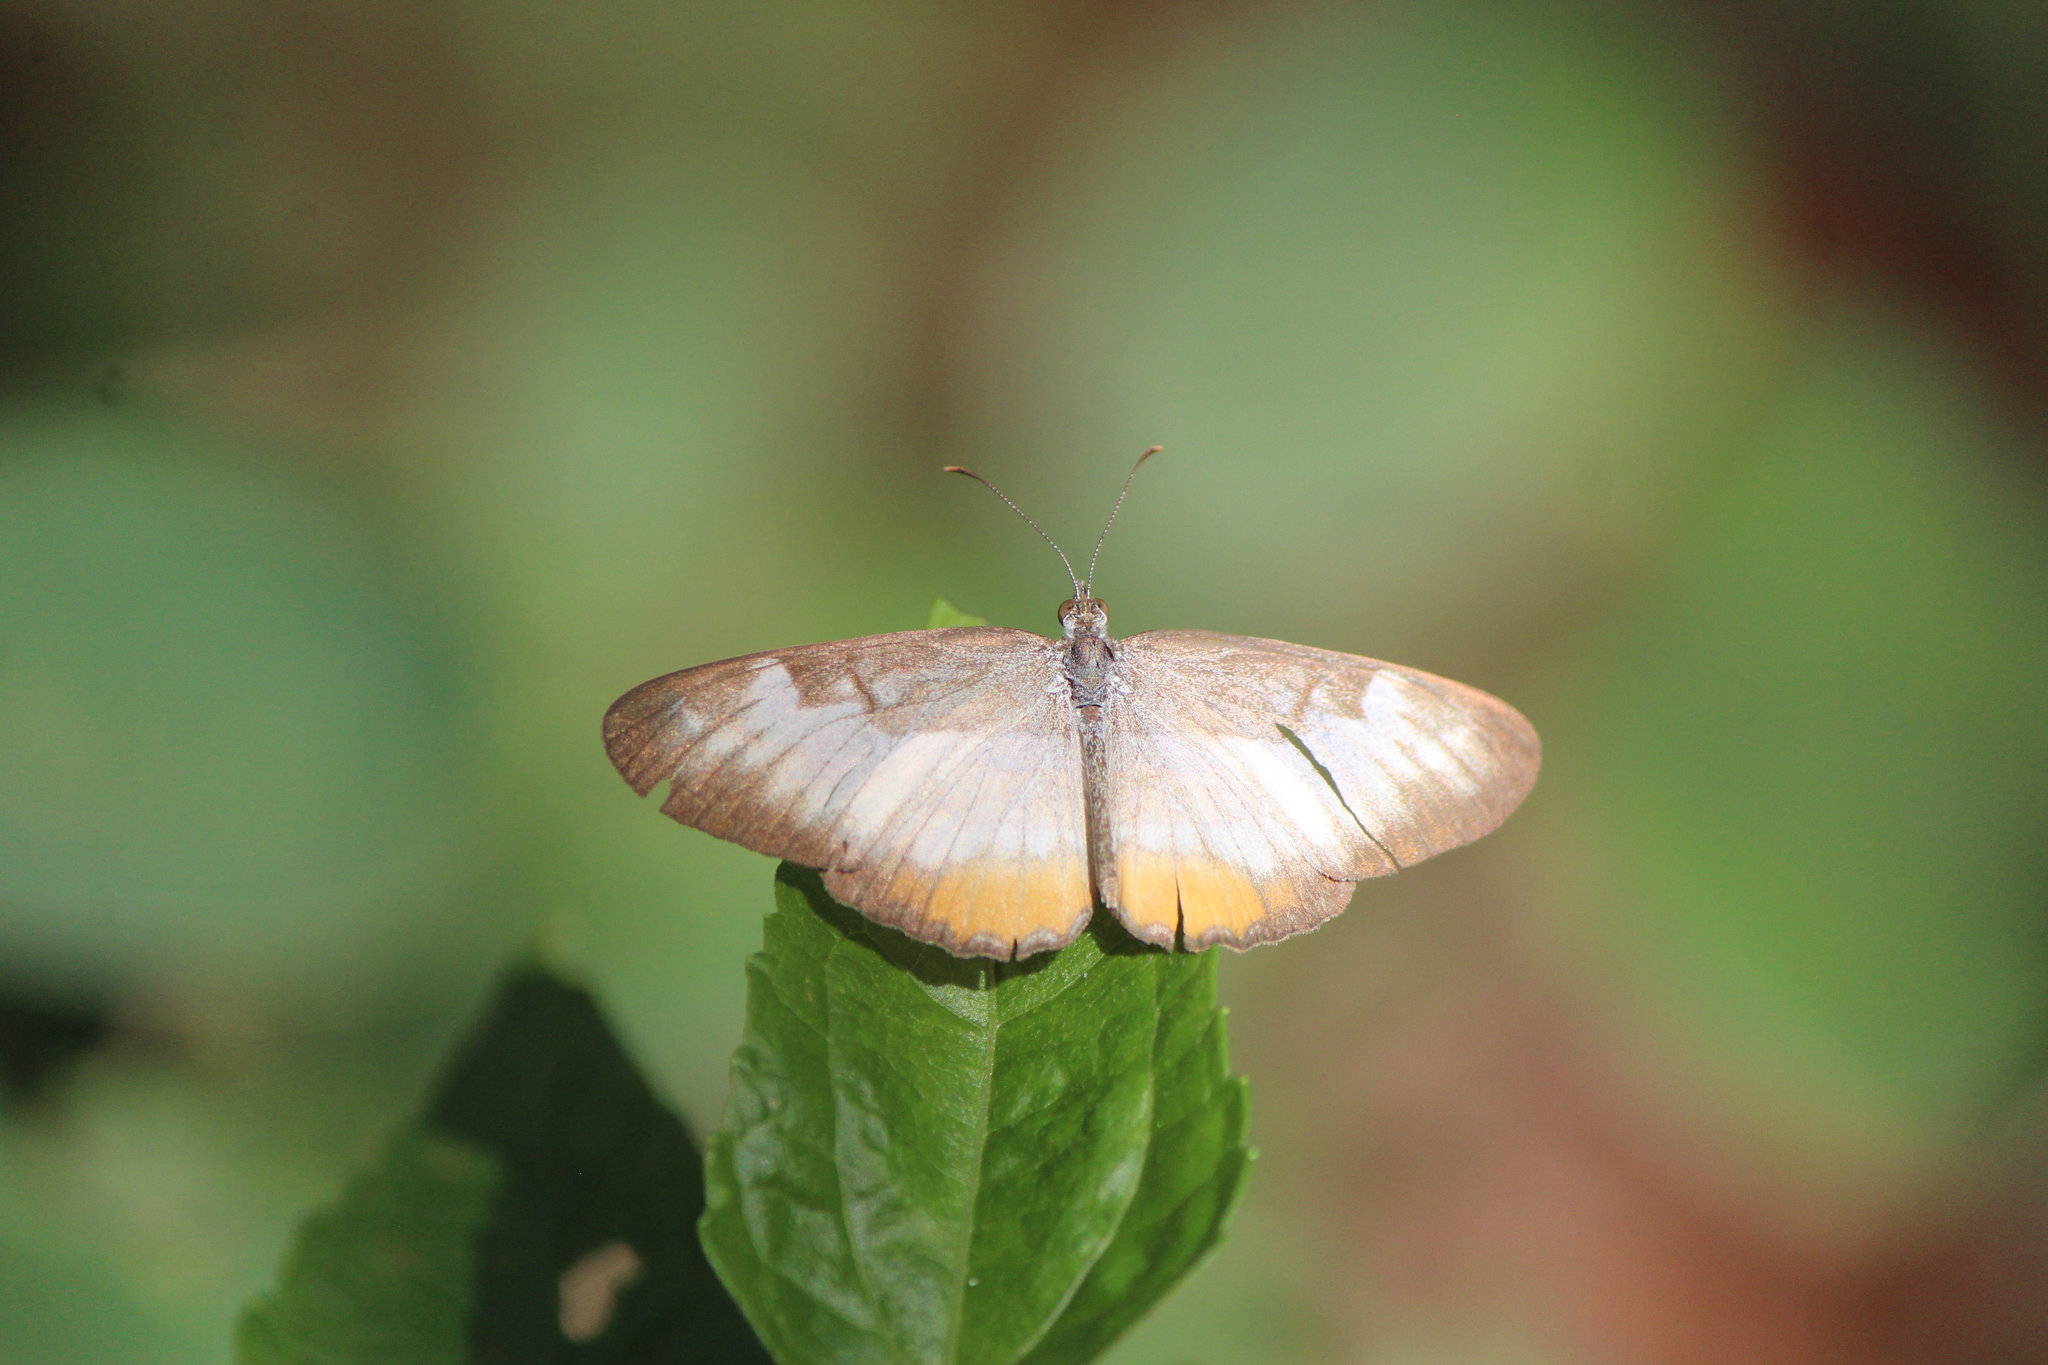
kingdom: Animalia
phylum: Arthropoda
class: Insecta
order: Lepidoptera
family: Nymphalidae
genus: Mestra
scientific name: Mestra amymone
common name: Common mestra
